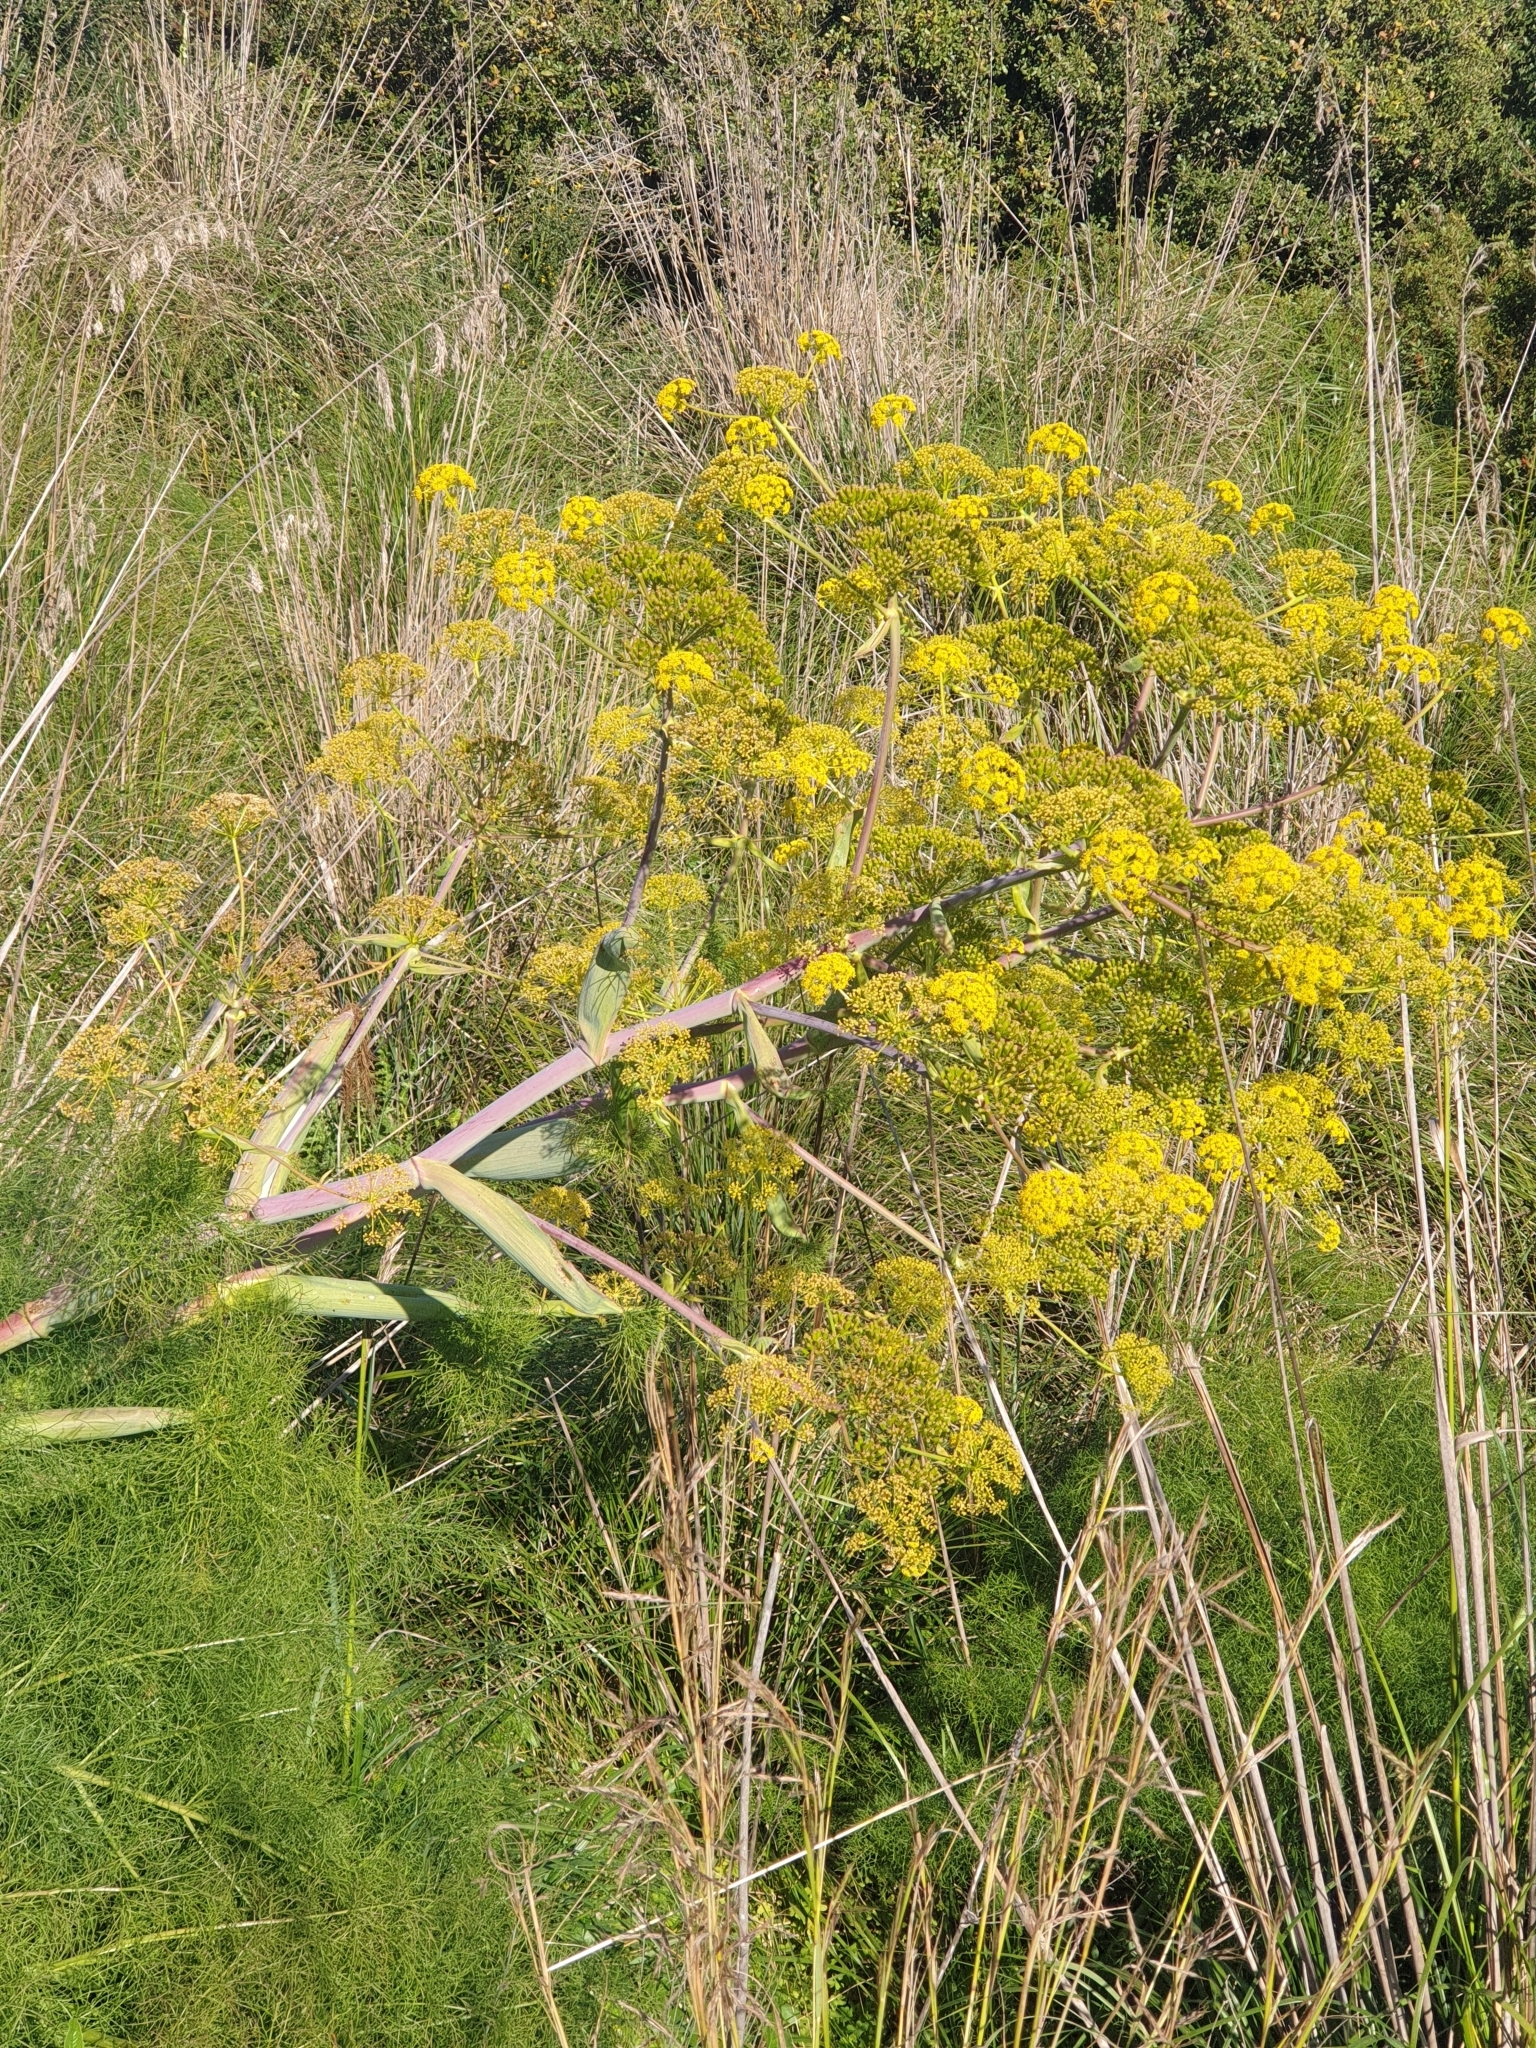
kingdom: Plantae
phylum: Tracheophyta
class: Magnoliopsida
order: Apiales
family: Apiaceae
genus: Ferula
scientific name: Ferula communis
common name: Giant fennel
